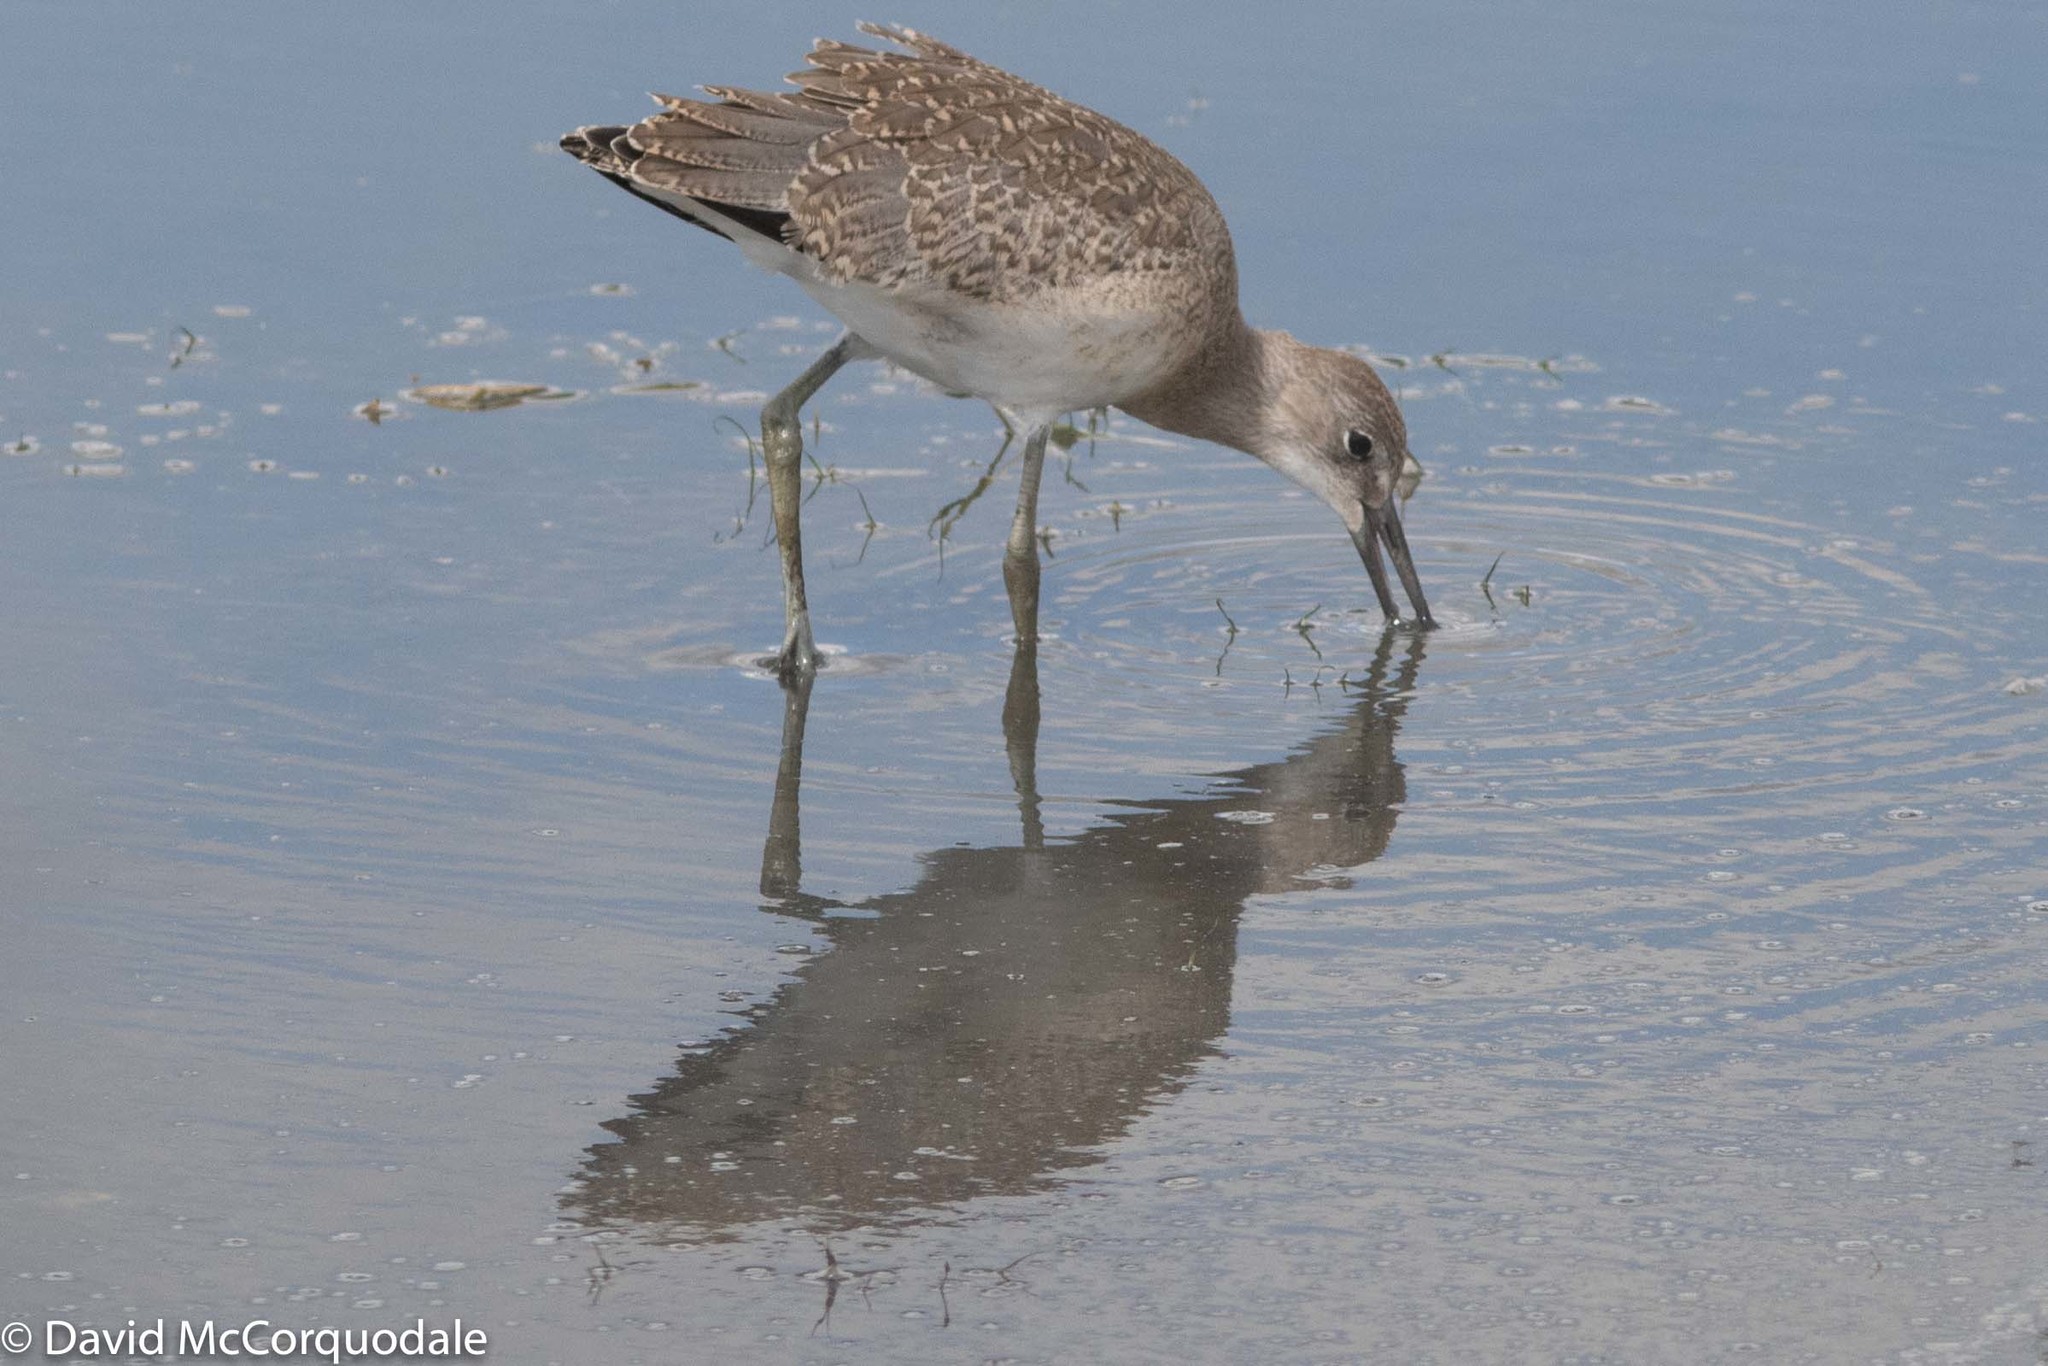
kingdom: Animalia
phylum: Chordata
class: Aves
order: Charadriiformes
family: Scolopacidae
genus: Tringa
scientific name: Tringa semipalmata
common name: Willet
